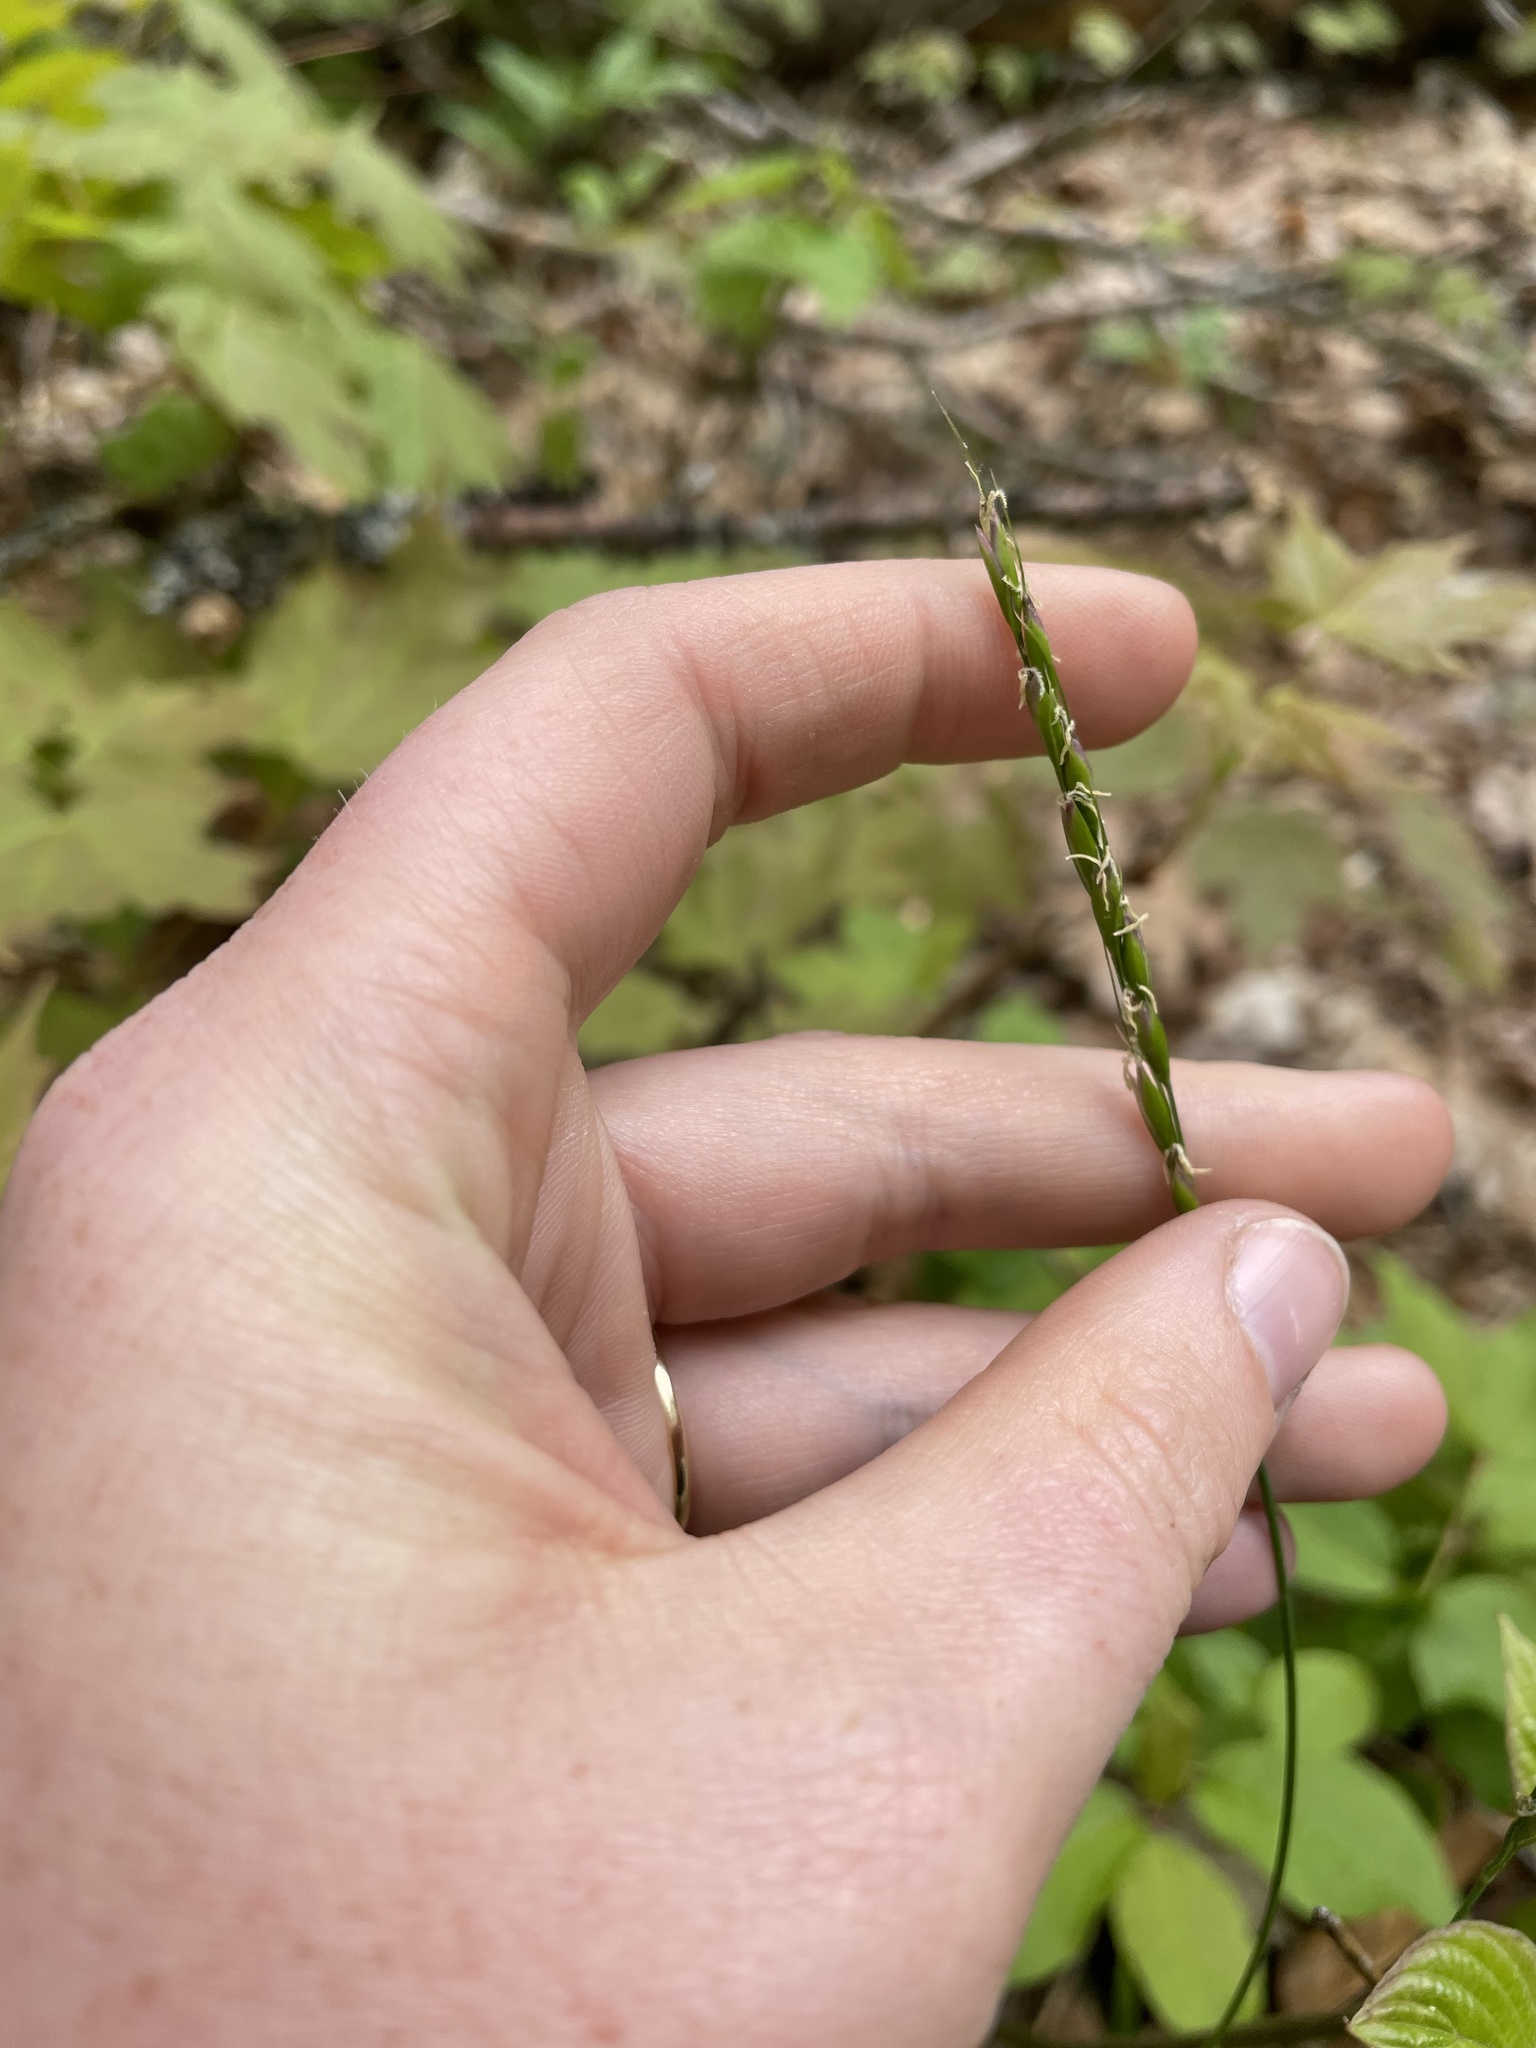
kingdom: Plantae
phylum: Tracheophyta
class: Liliopsida
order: Poales
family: Poaceae
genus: Oryzopsis
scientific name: Oryzopsis asperifolia
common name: Rough-leaved mountain rice
